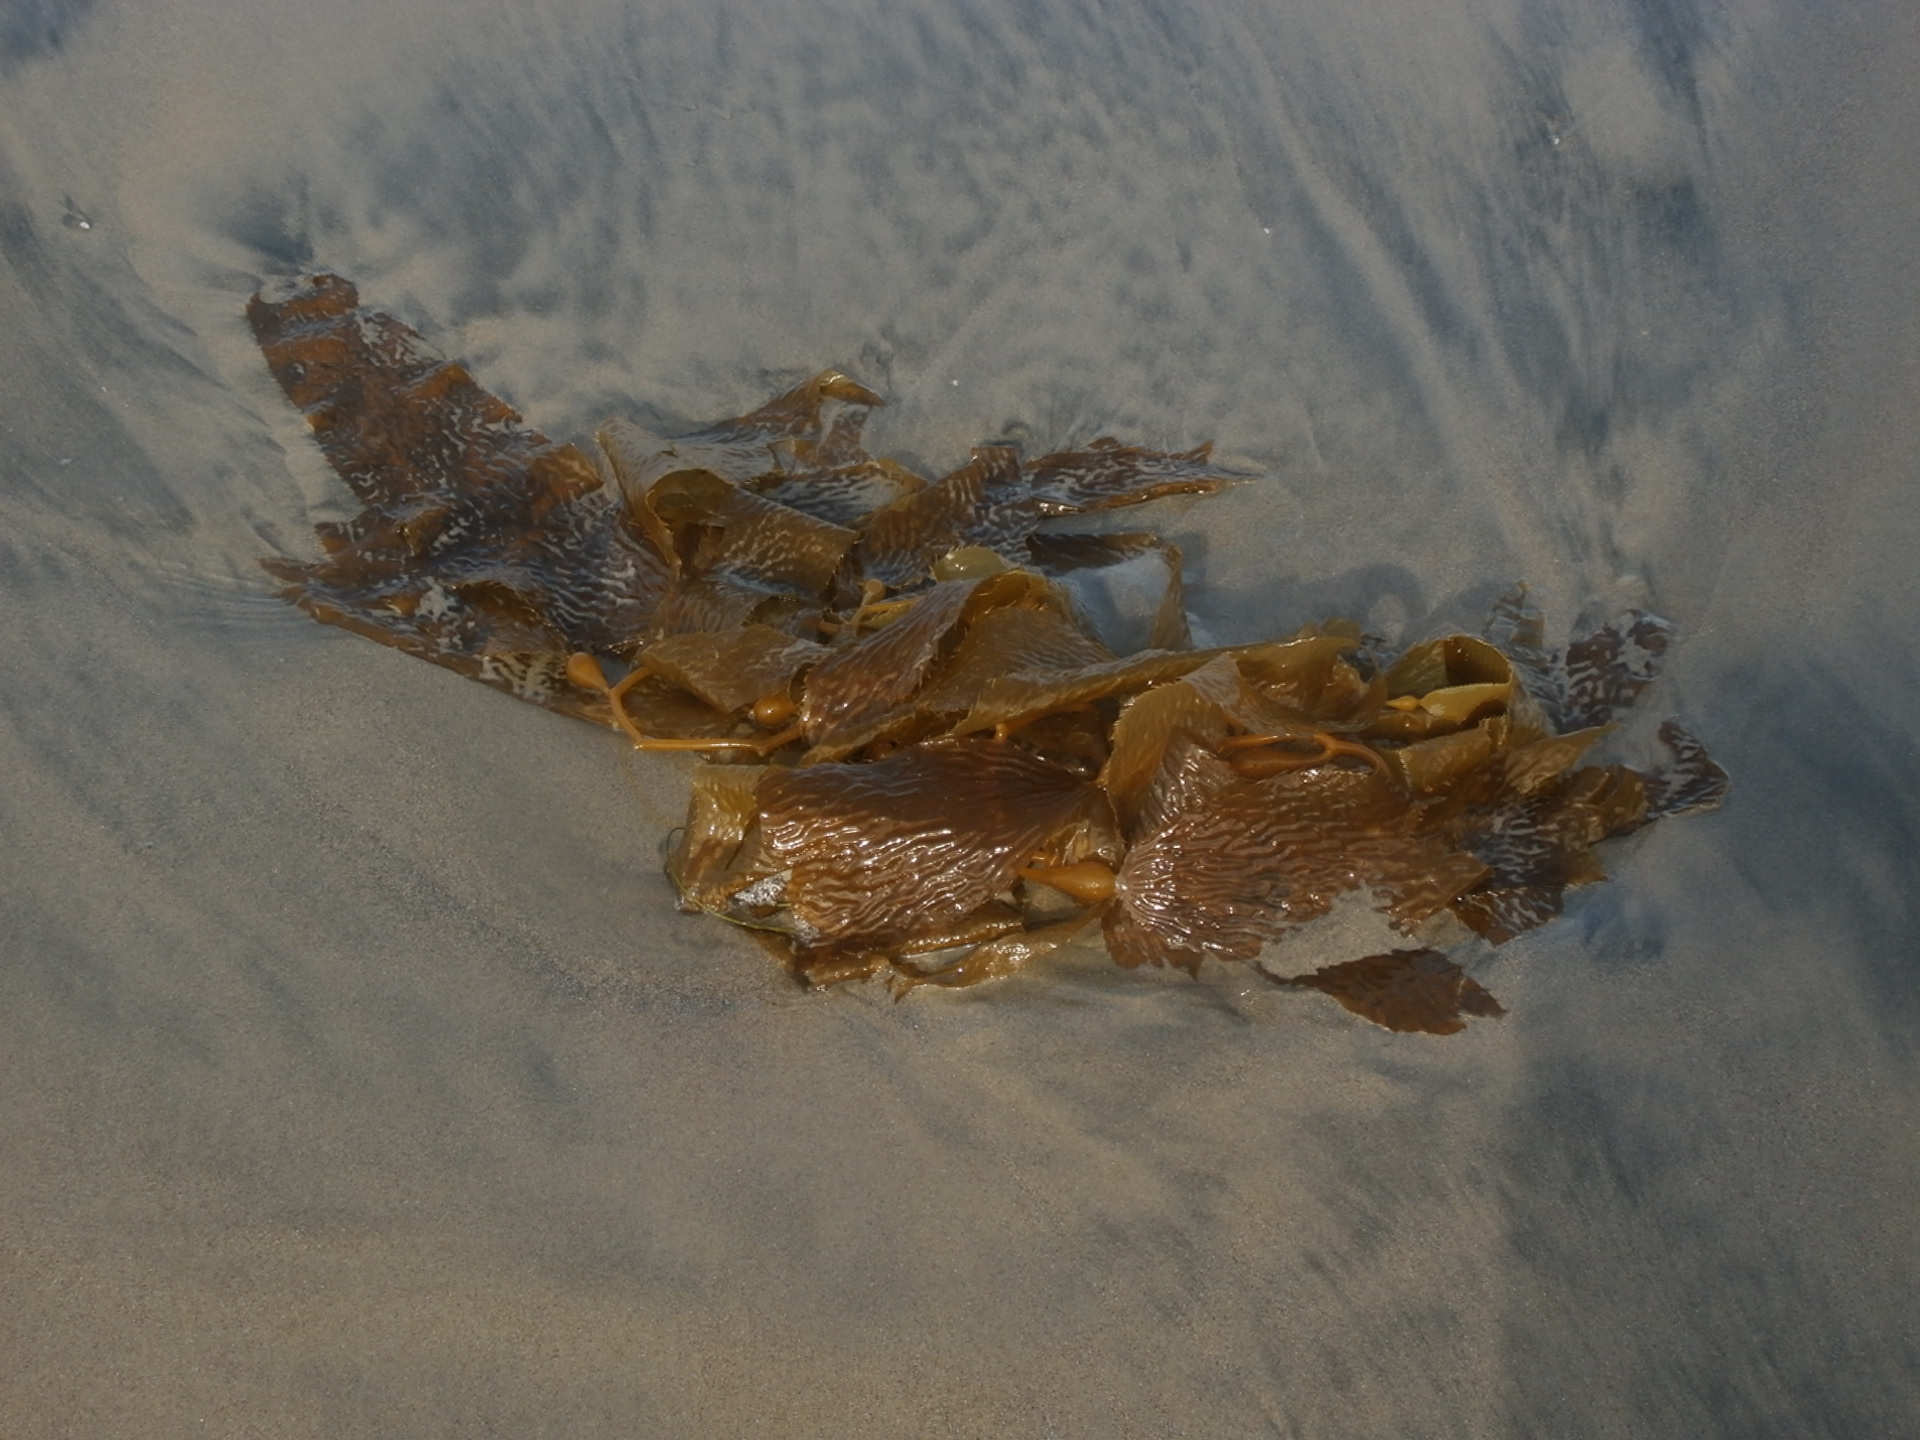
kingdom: Chromista
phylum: Ochrophyta
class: Phaeophyceae
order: Laminariales
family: Laminariaceae
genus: Macrocystis
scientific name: Macrocystis pyrifera
